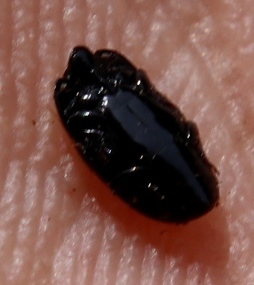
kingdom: Animalia
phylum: Arthropoda
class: Insecta
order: Coleoptera
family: Scarabaeidae
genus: Genuchus
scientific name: Genuchus hottentottus
